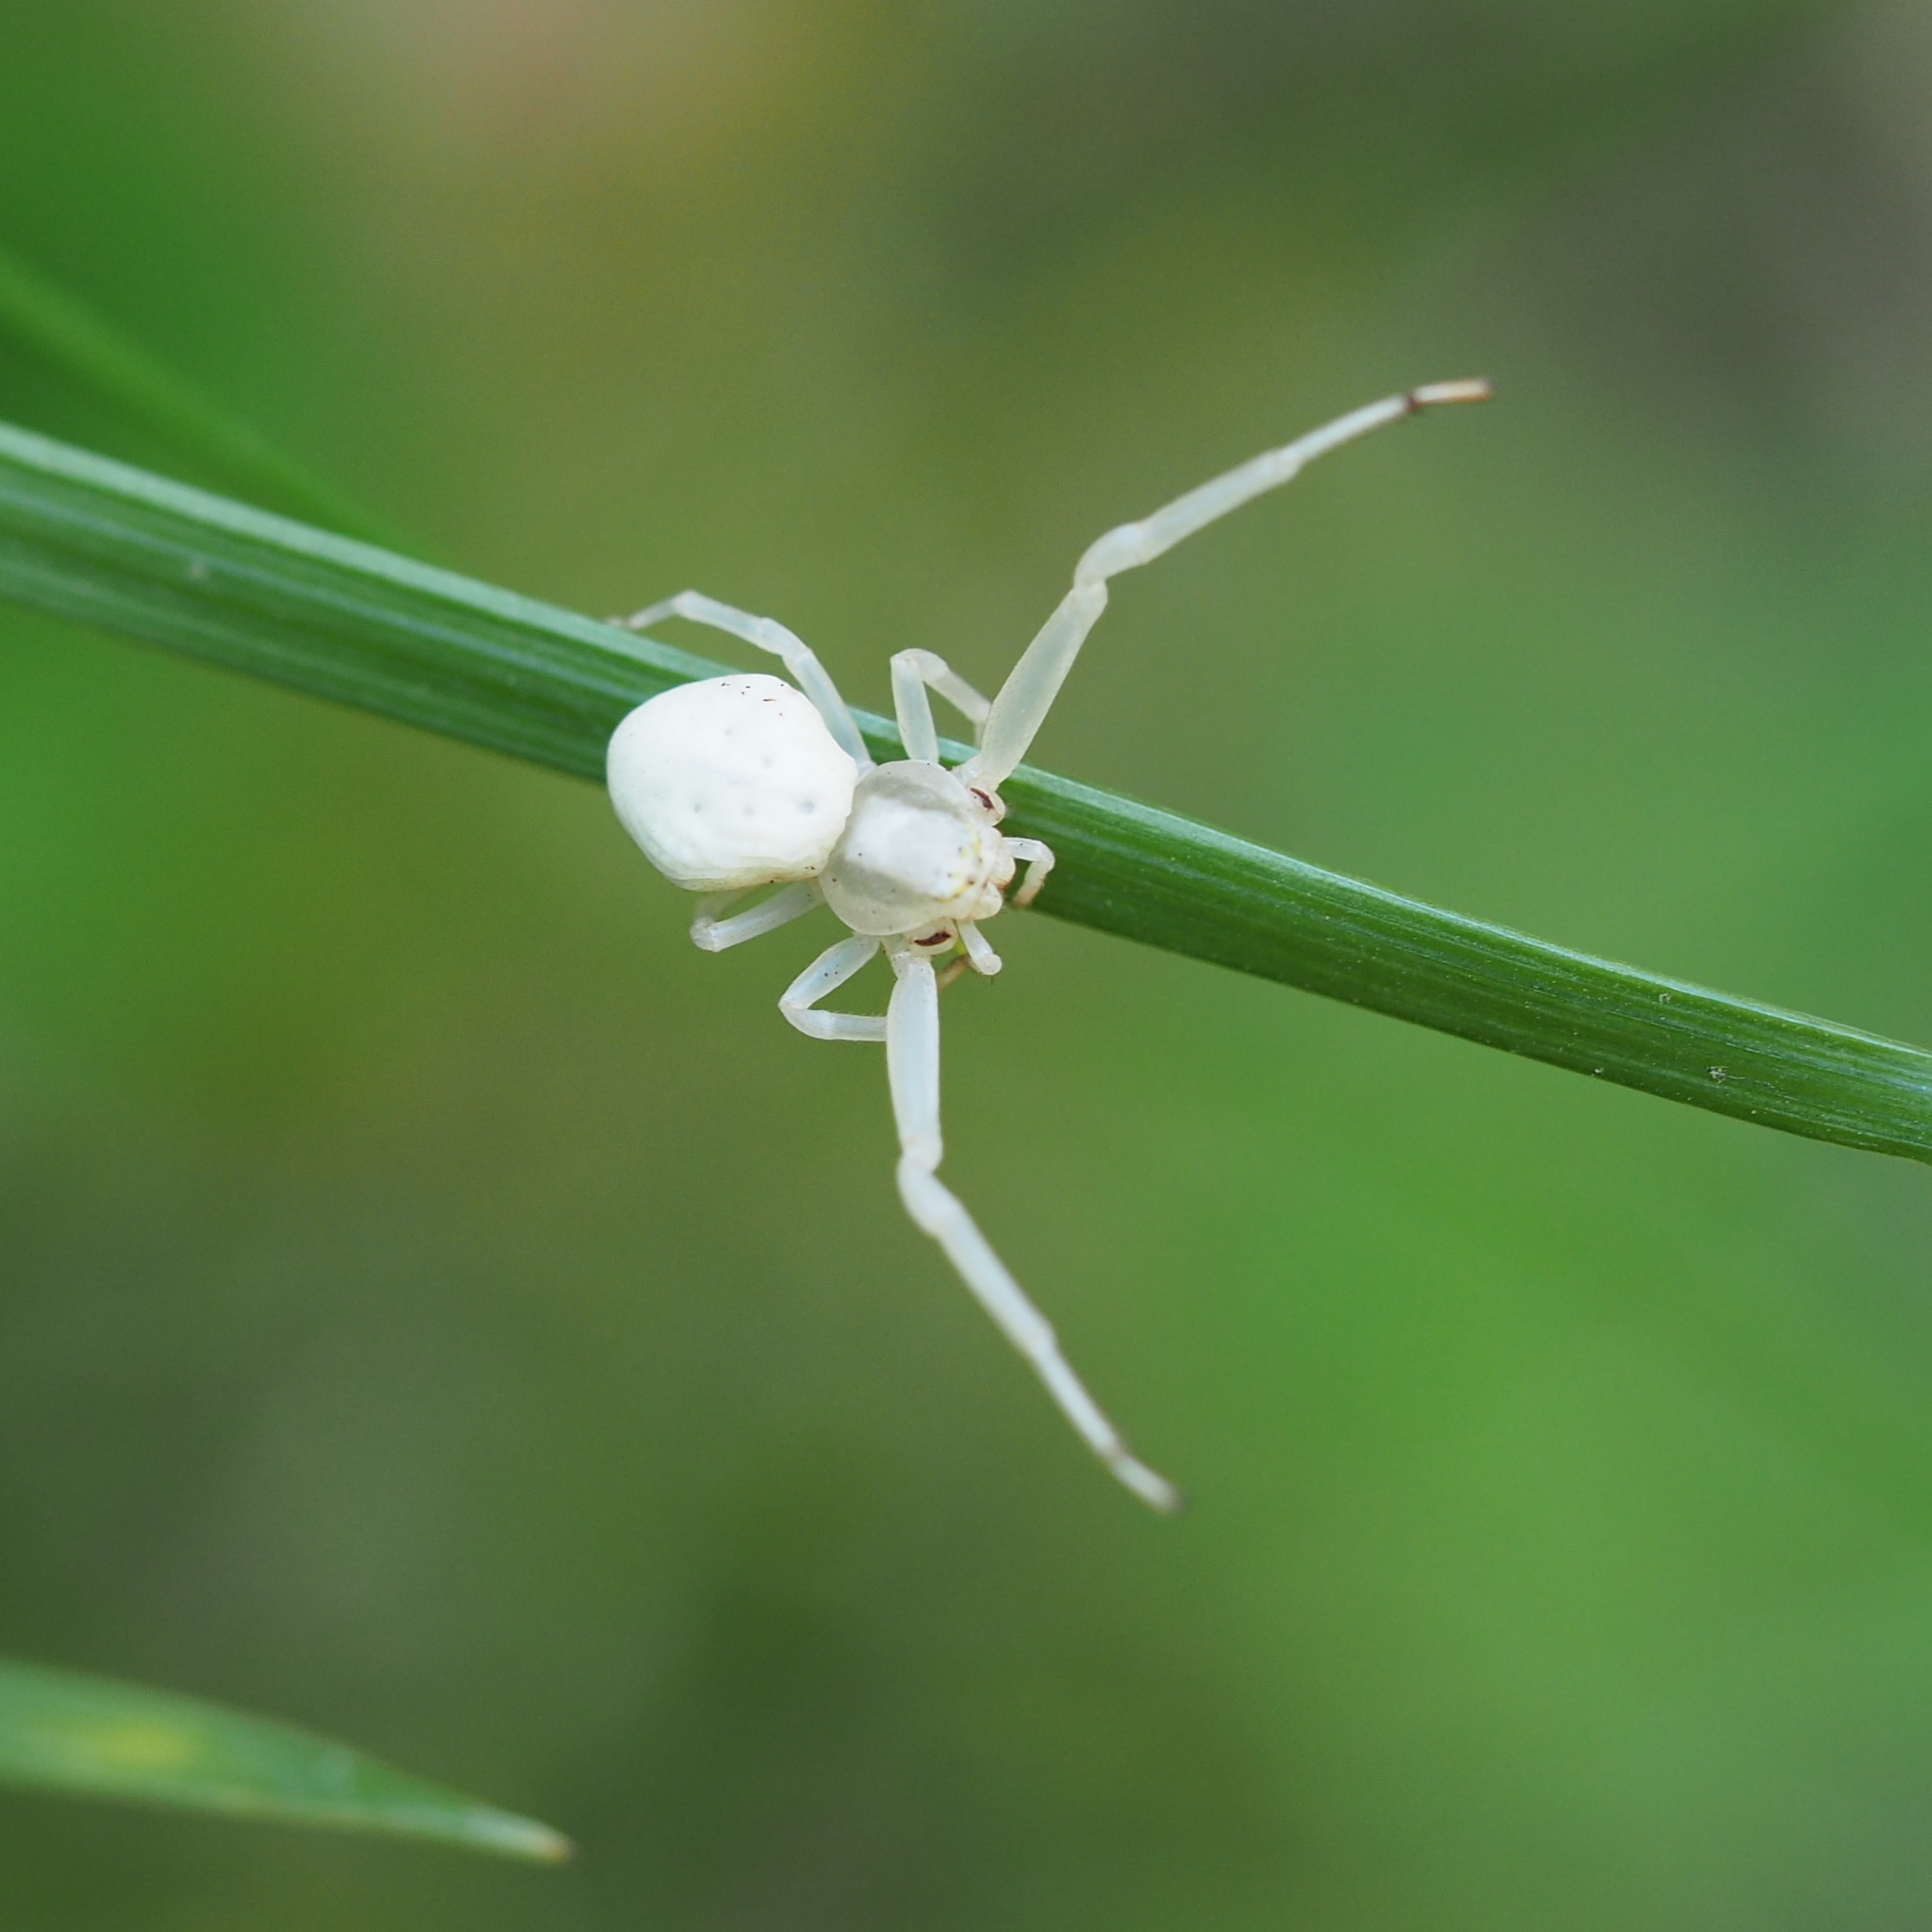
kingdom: Animalia
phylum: Arthropoda
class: Arachnida
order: Araneae
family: Thomisidae
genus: Misumena
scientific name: Misumena vatia
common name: Goldenrod crab spider
